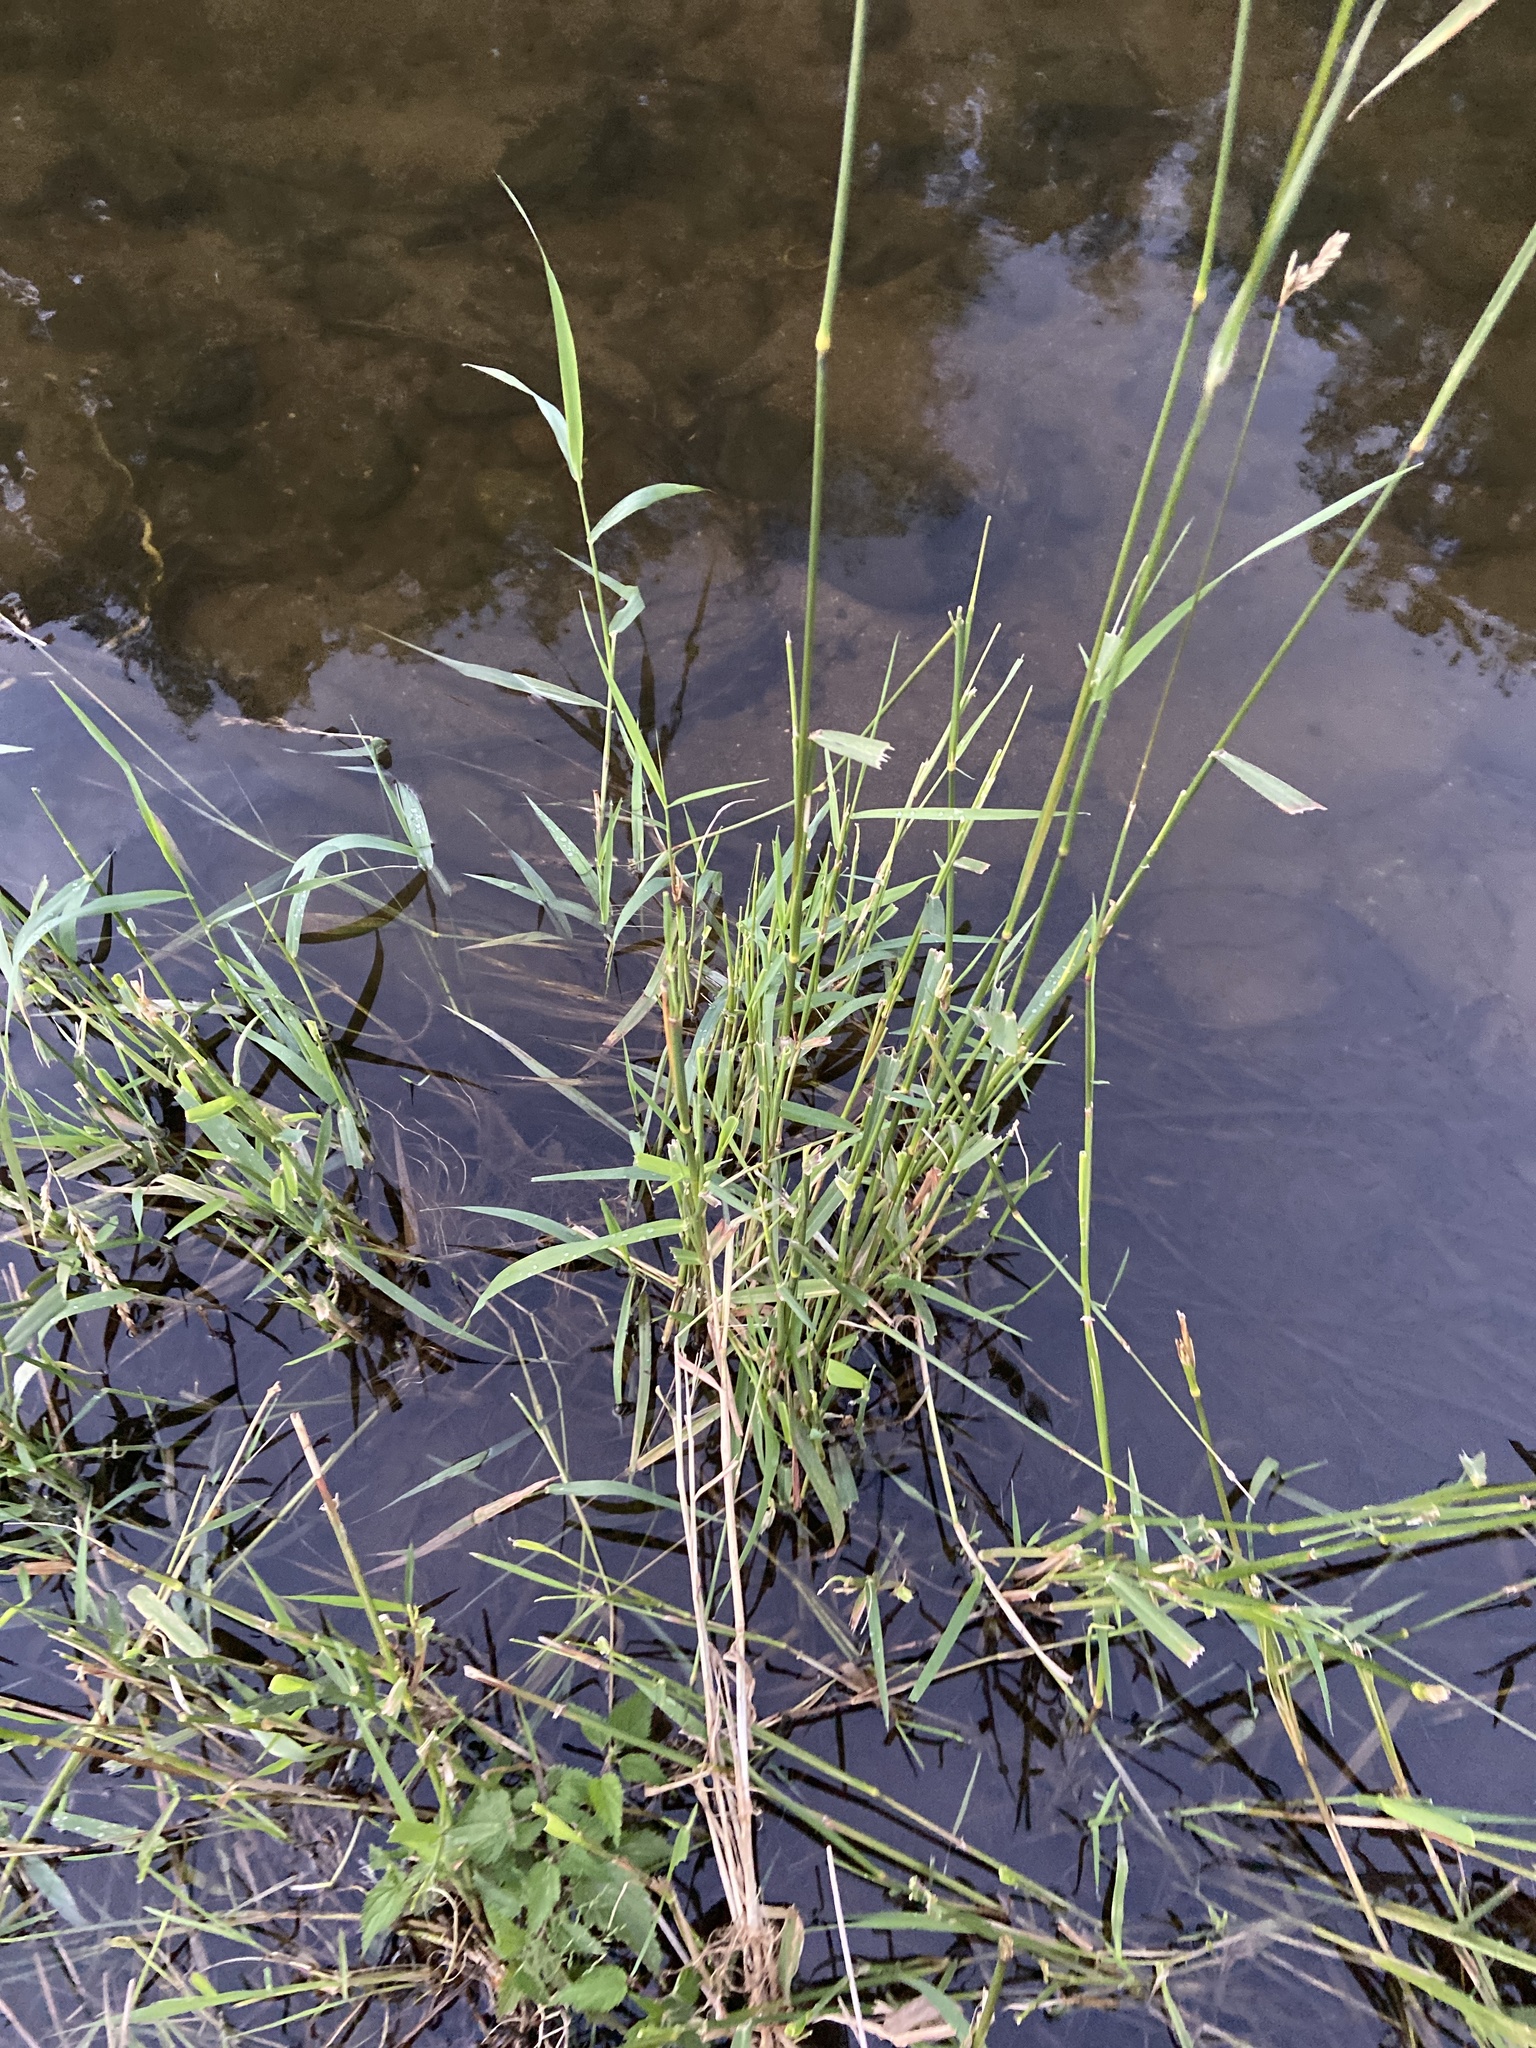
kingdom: Plantae
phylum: Tracheophyta
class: Liliopsida
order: Poales
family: Poaceae
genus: Phalaris
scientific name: Phalaris arundinacea
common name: Reed canary-grass
